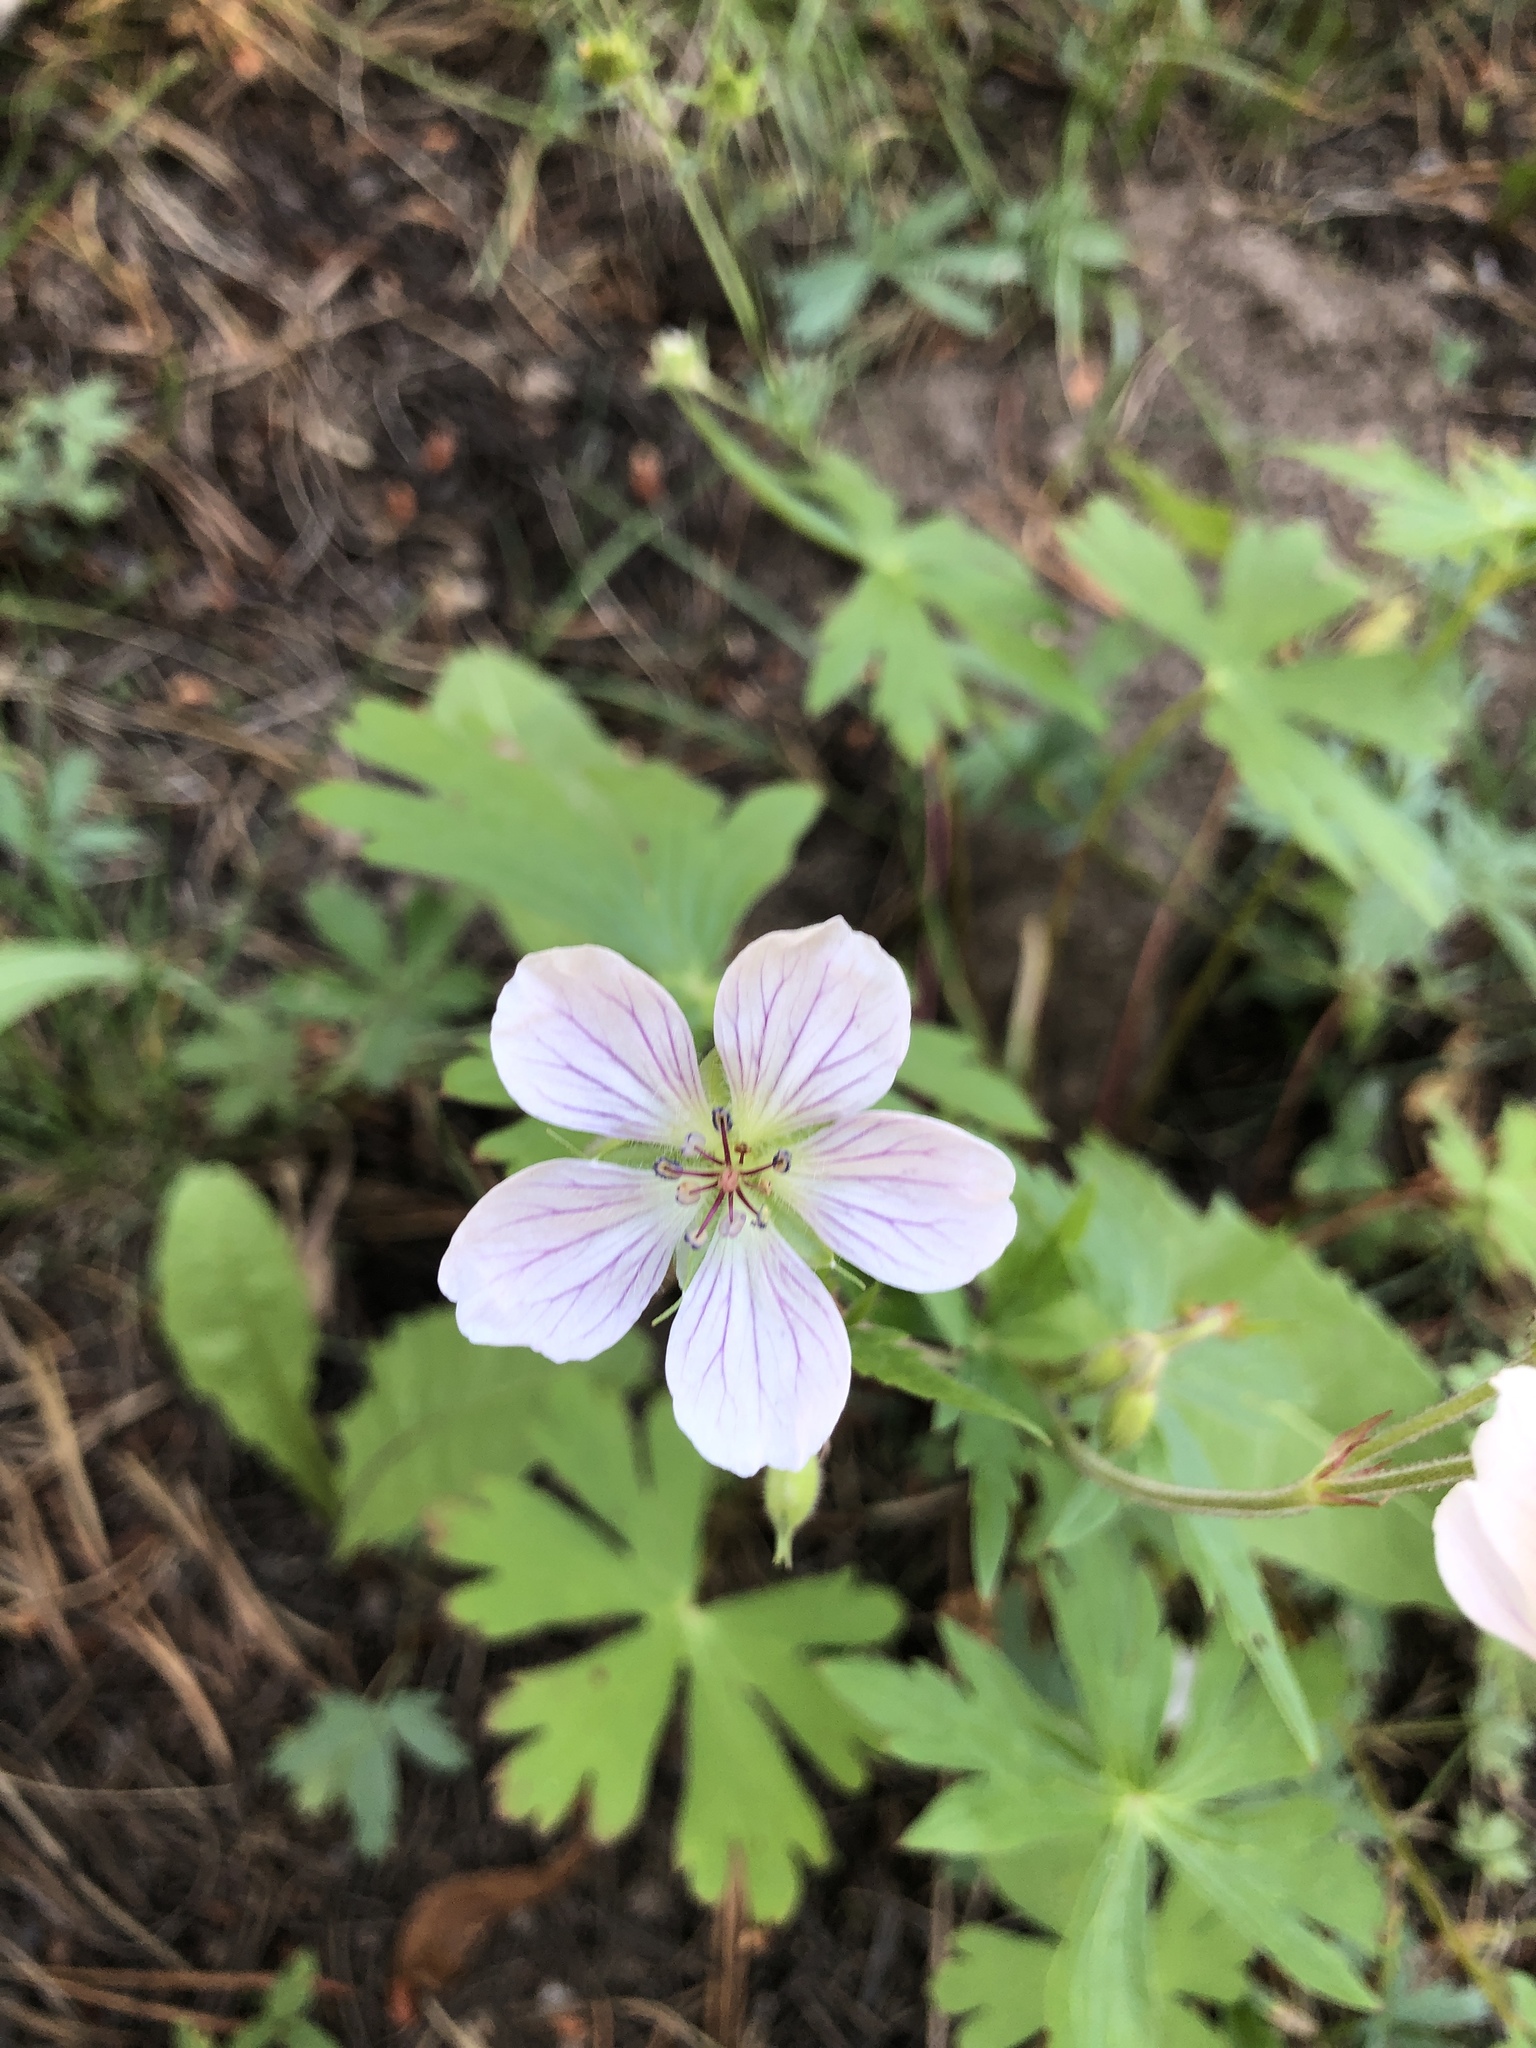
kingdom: Plantae
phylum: Tracheophyta
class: Magnoliopsida
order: Geraniales
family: Geraniaceae
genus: Geranium
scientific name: Geranium richardsonii
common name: Richardson's crane's-bill
